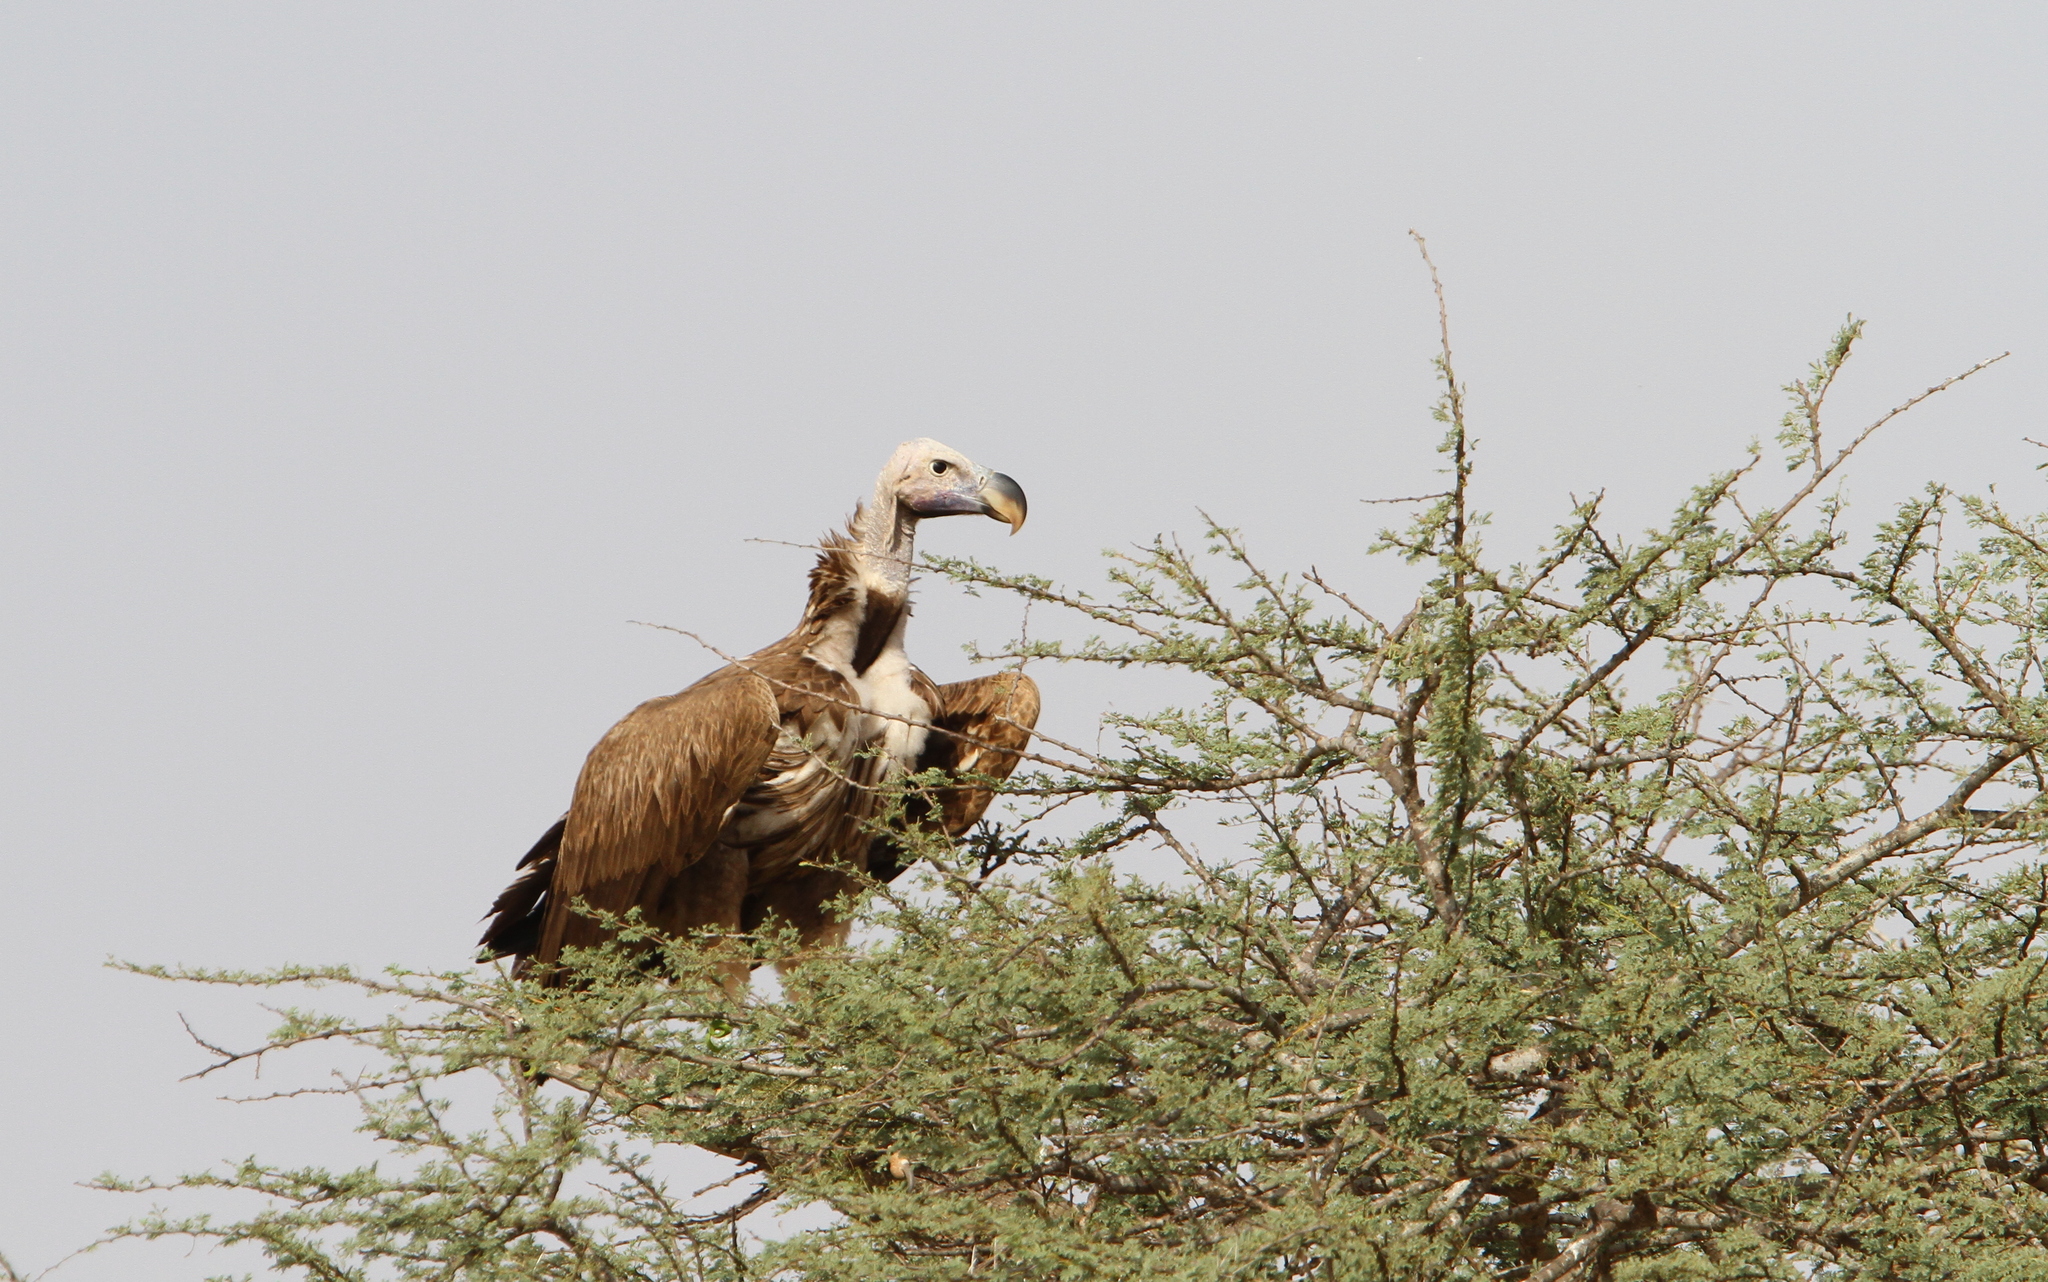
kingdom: Animalia
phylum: Chordata
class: Aves
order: Accipitriformes
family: Accipitridae
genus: Torgos
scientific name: Torgos tracheliotos
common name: Lappet-faced vulture
